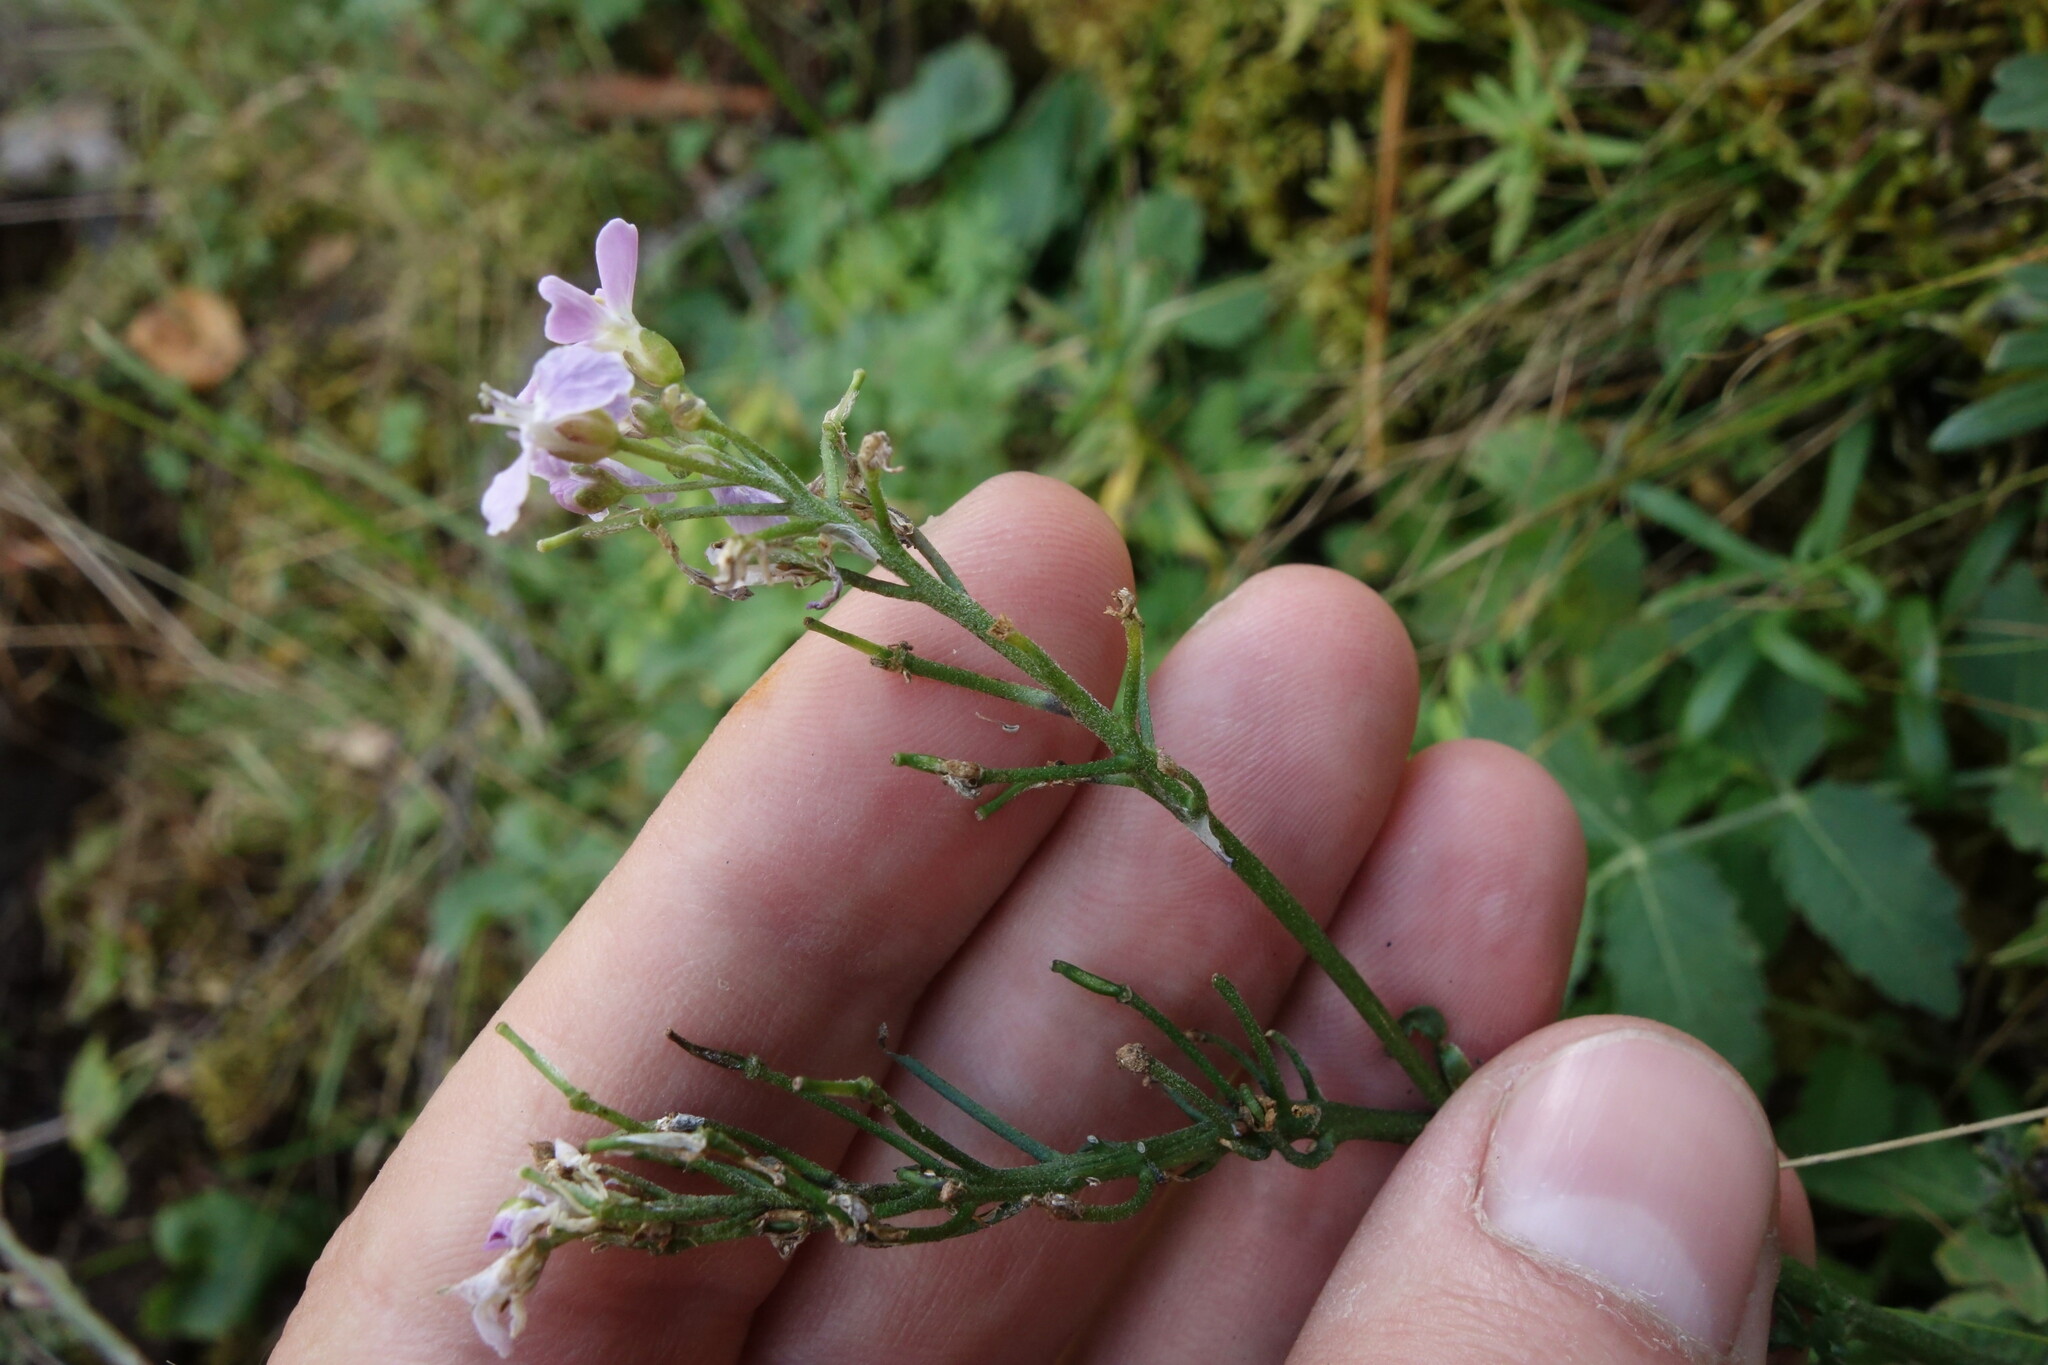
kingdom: Plantae
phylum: Tracheophyta
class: Magnoliopsida
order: Brassicales
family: Brassicaceae
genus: Cardamine
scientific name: Cardamine macrophylla
